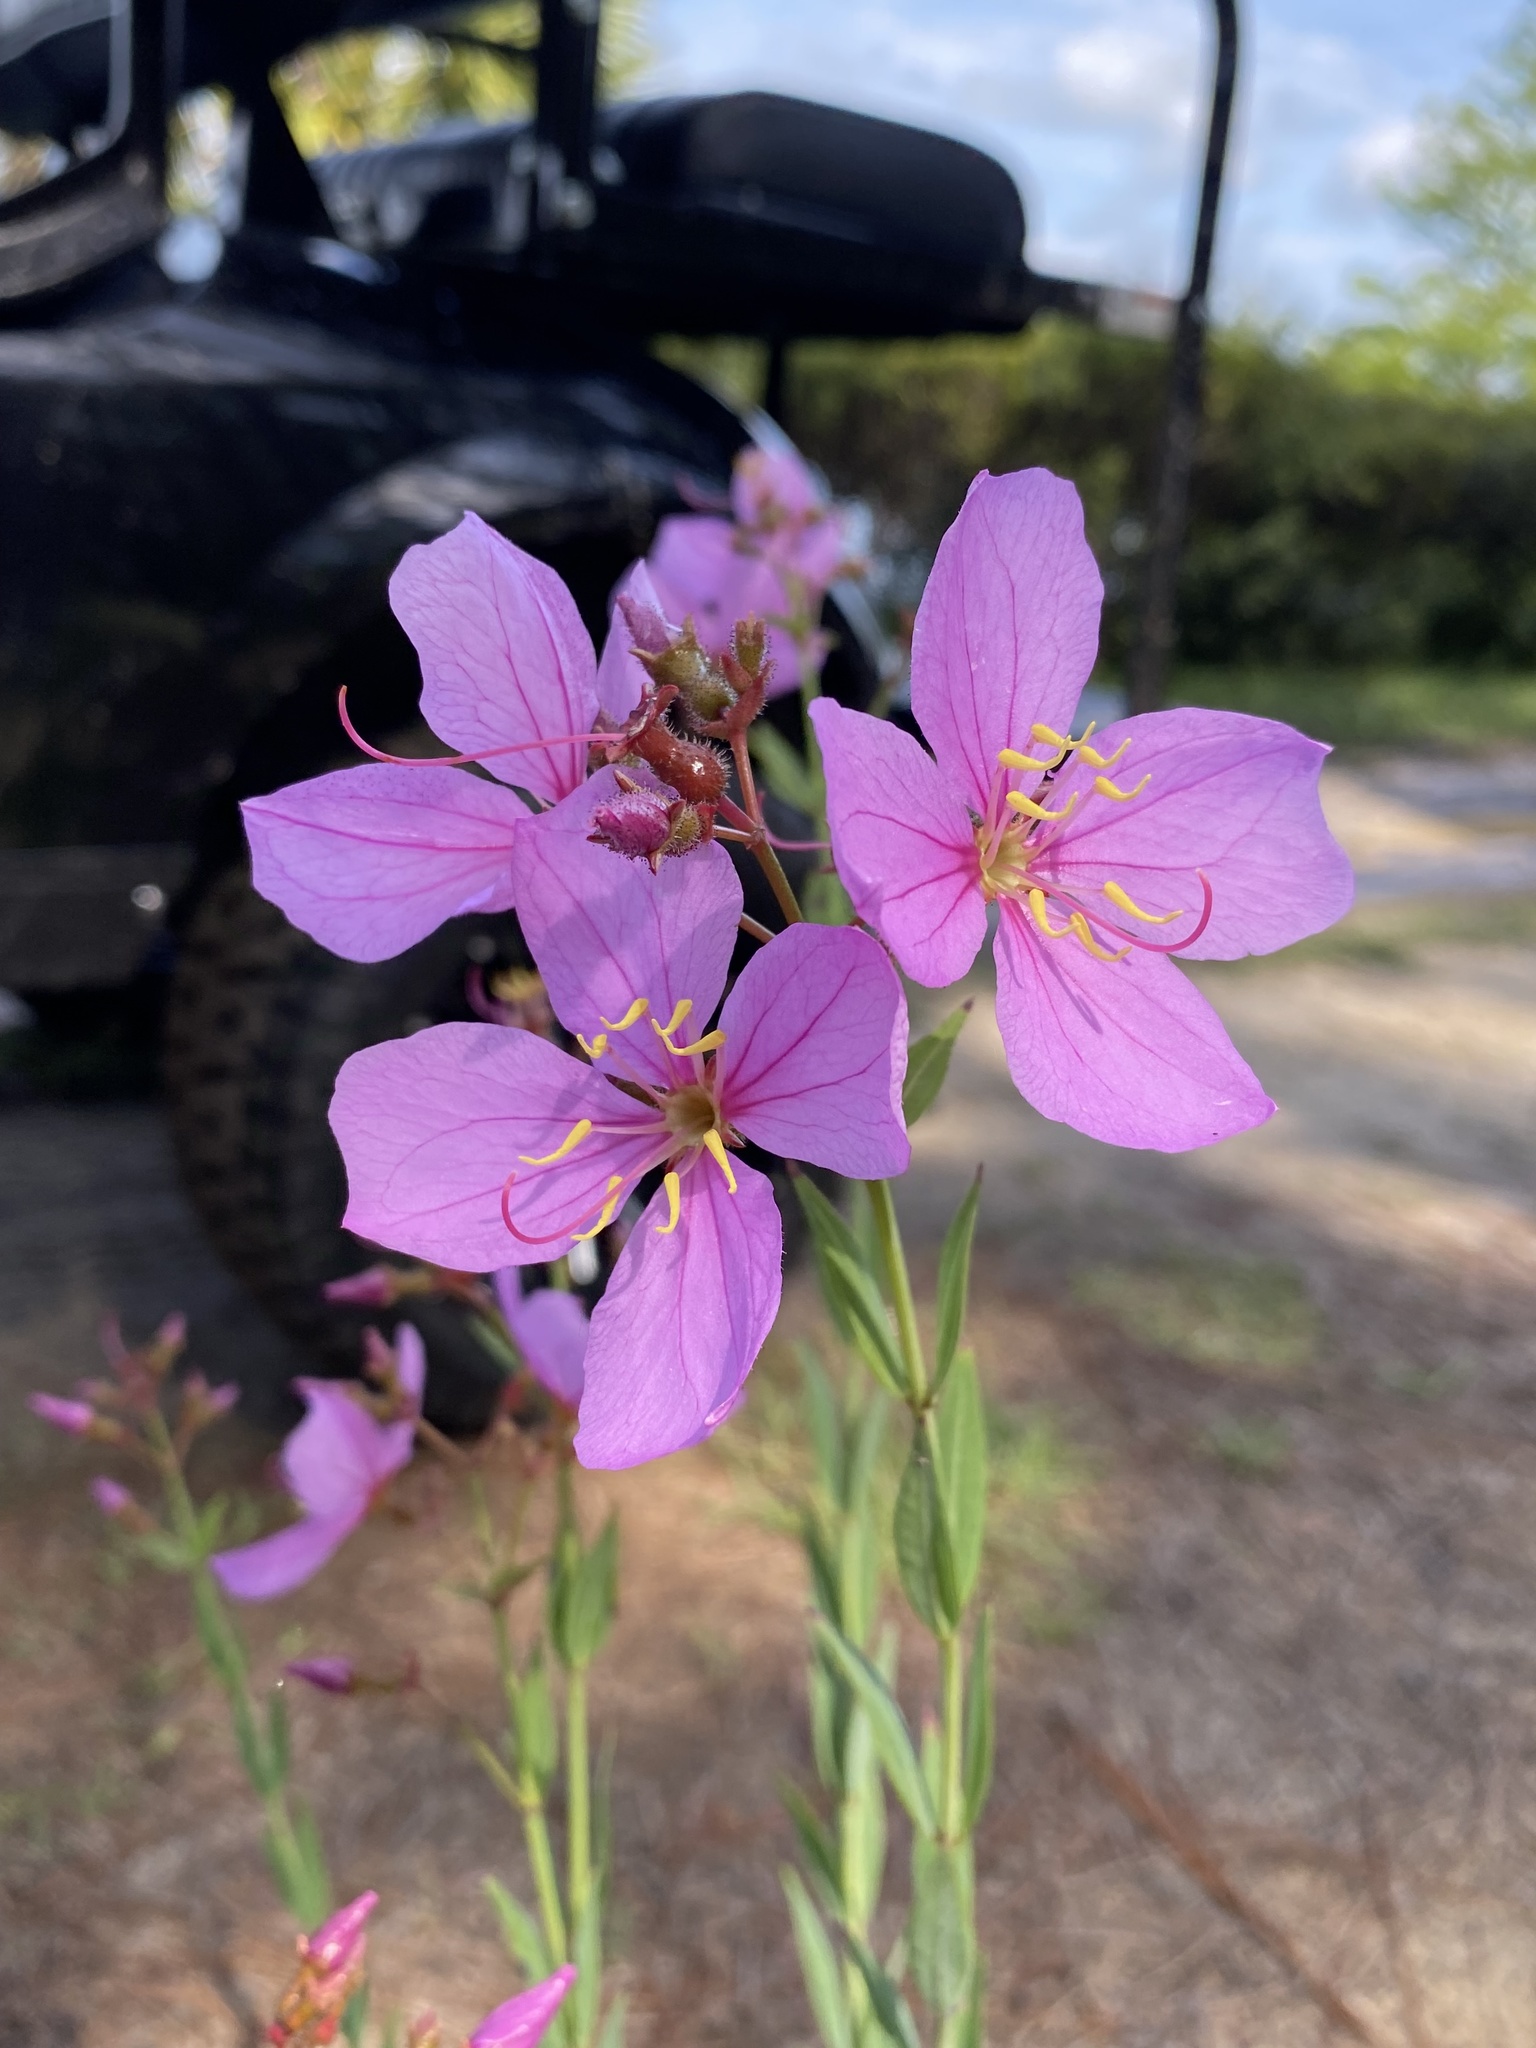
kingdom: Plantae
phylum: Tracheophyta
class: Magnoliopsida
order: Myrtales
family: Melastomataceae
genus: Rhexia
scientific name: Rhexia alifanus
